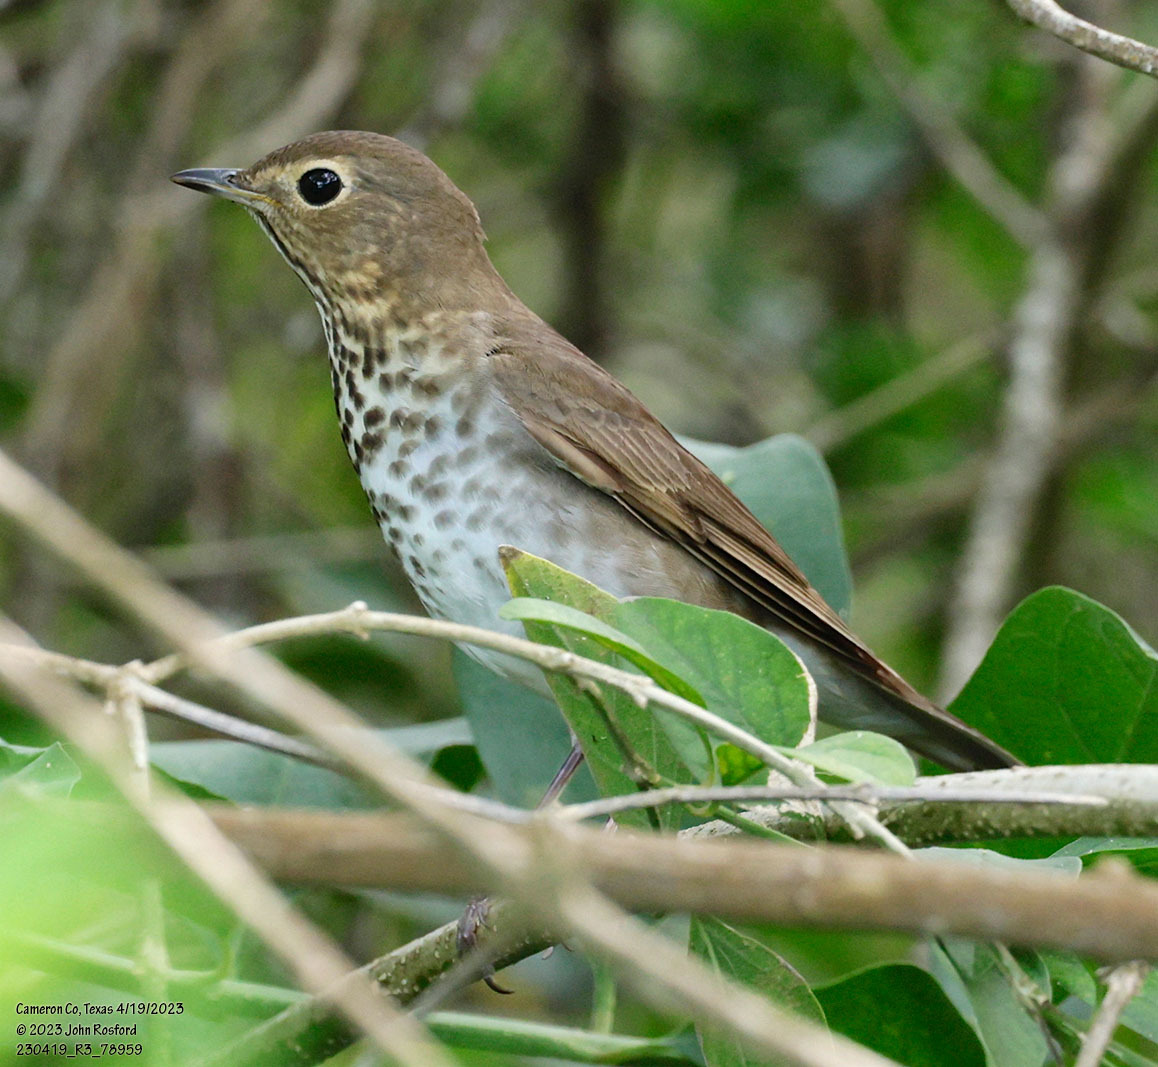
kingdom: Animalia
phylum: Chordata
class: Aves
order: Passeriformes
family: Turdidae
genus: Catharus
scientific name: Catharus ustulatus
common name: Swainson's thrush
